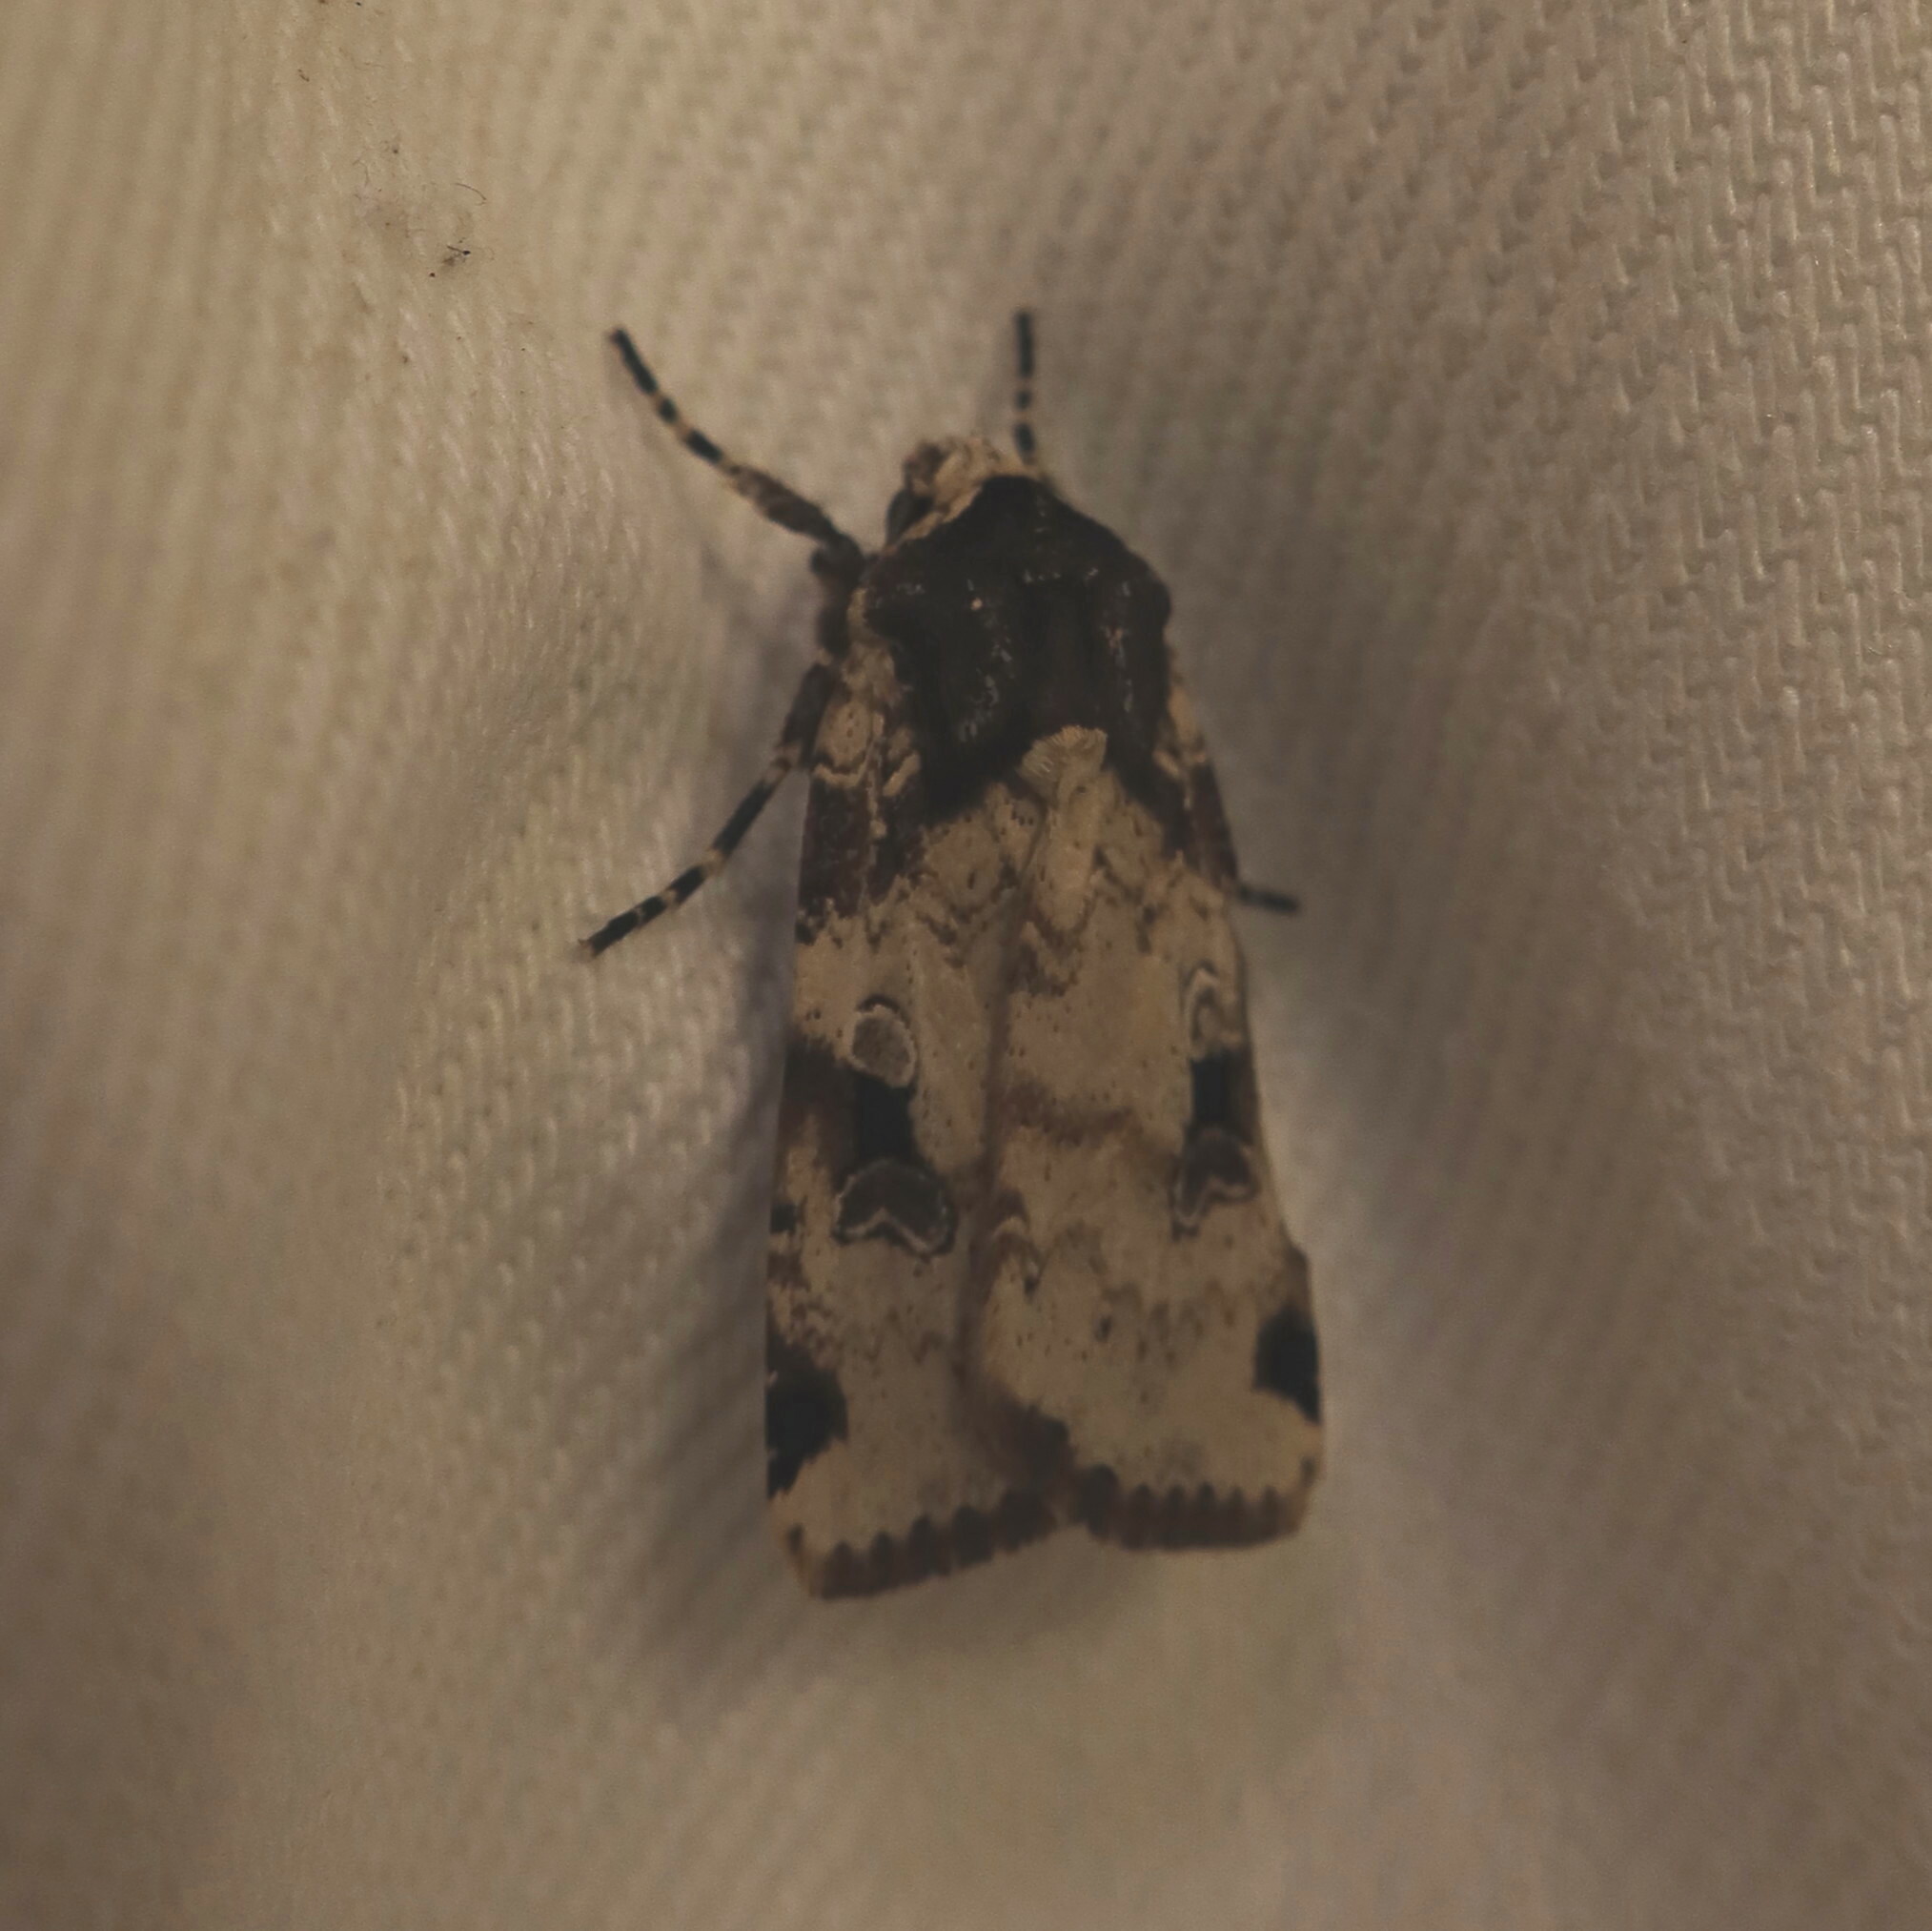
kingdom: Animalia
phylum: Arthropoda
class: Insecta
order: Lepidoptera
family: Noctuidae
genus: Mentaxya
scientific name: Mentaxya ignicollis
